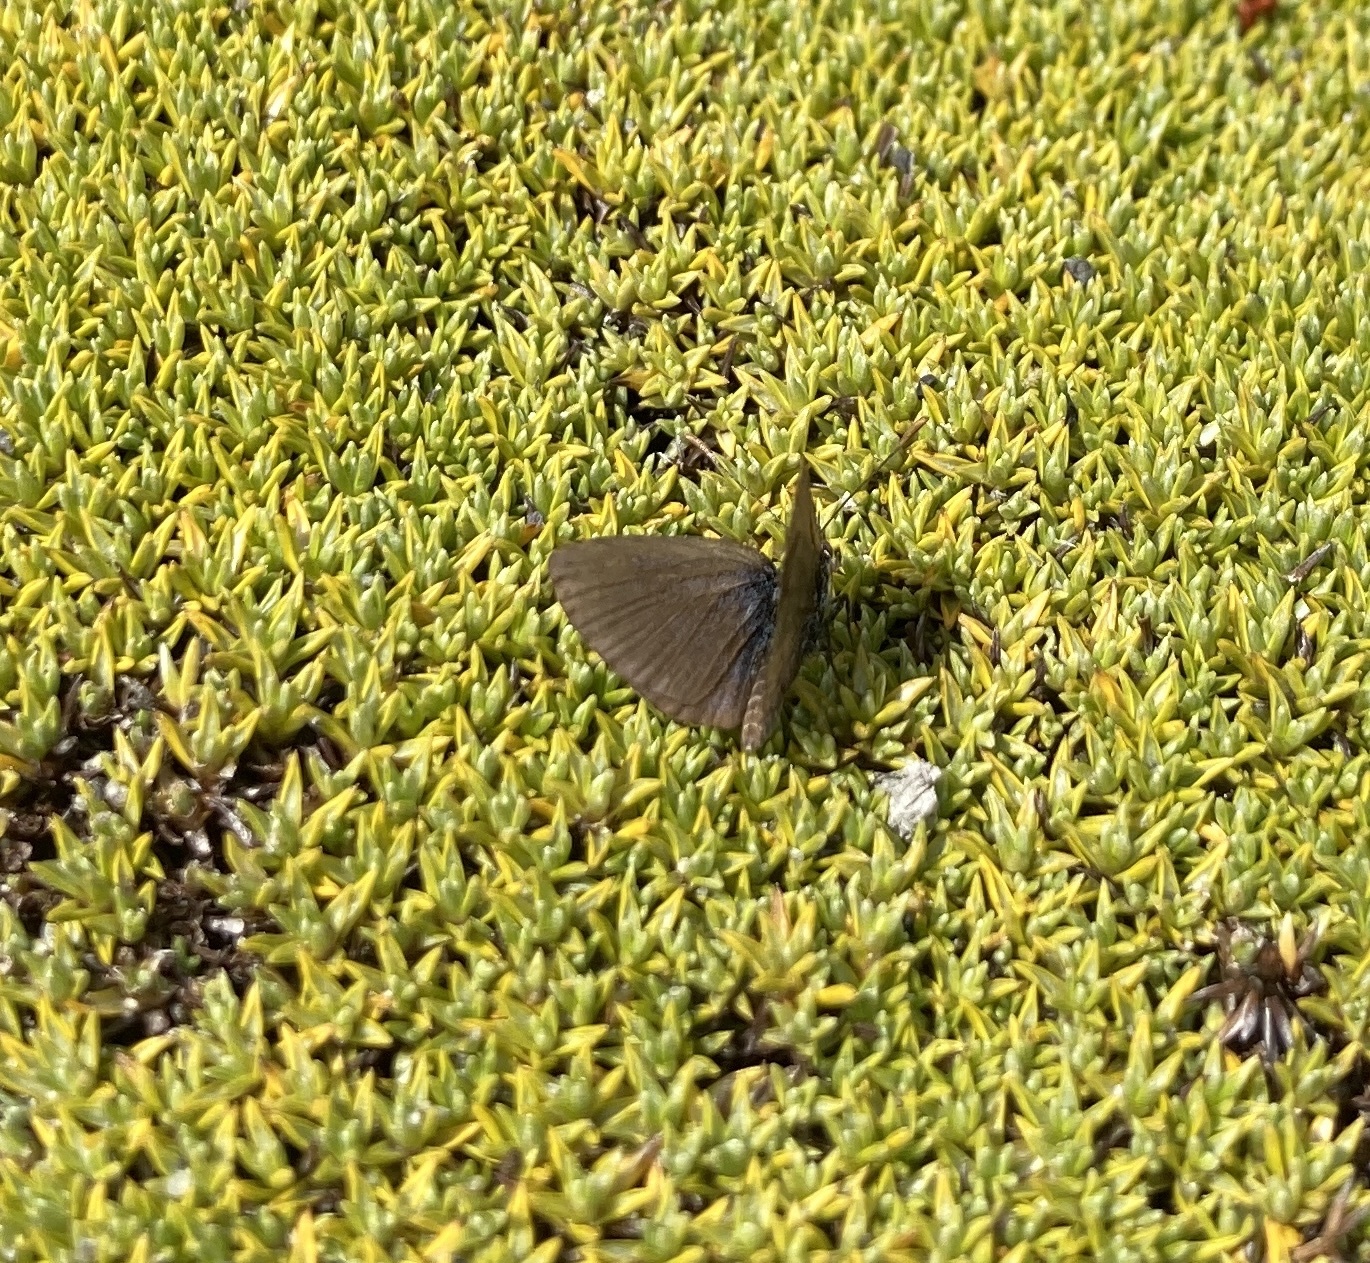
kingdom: Animalia
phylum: Arthropoda
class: Insecta
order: Lepidoptera
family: Lycaenidae
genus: Zizina
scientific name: Zizina oxleyi
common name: Southern blue
